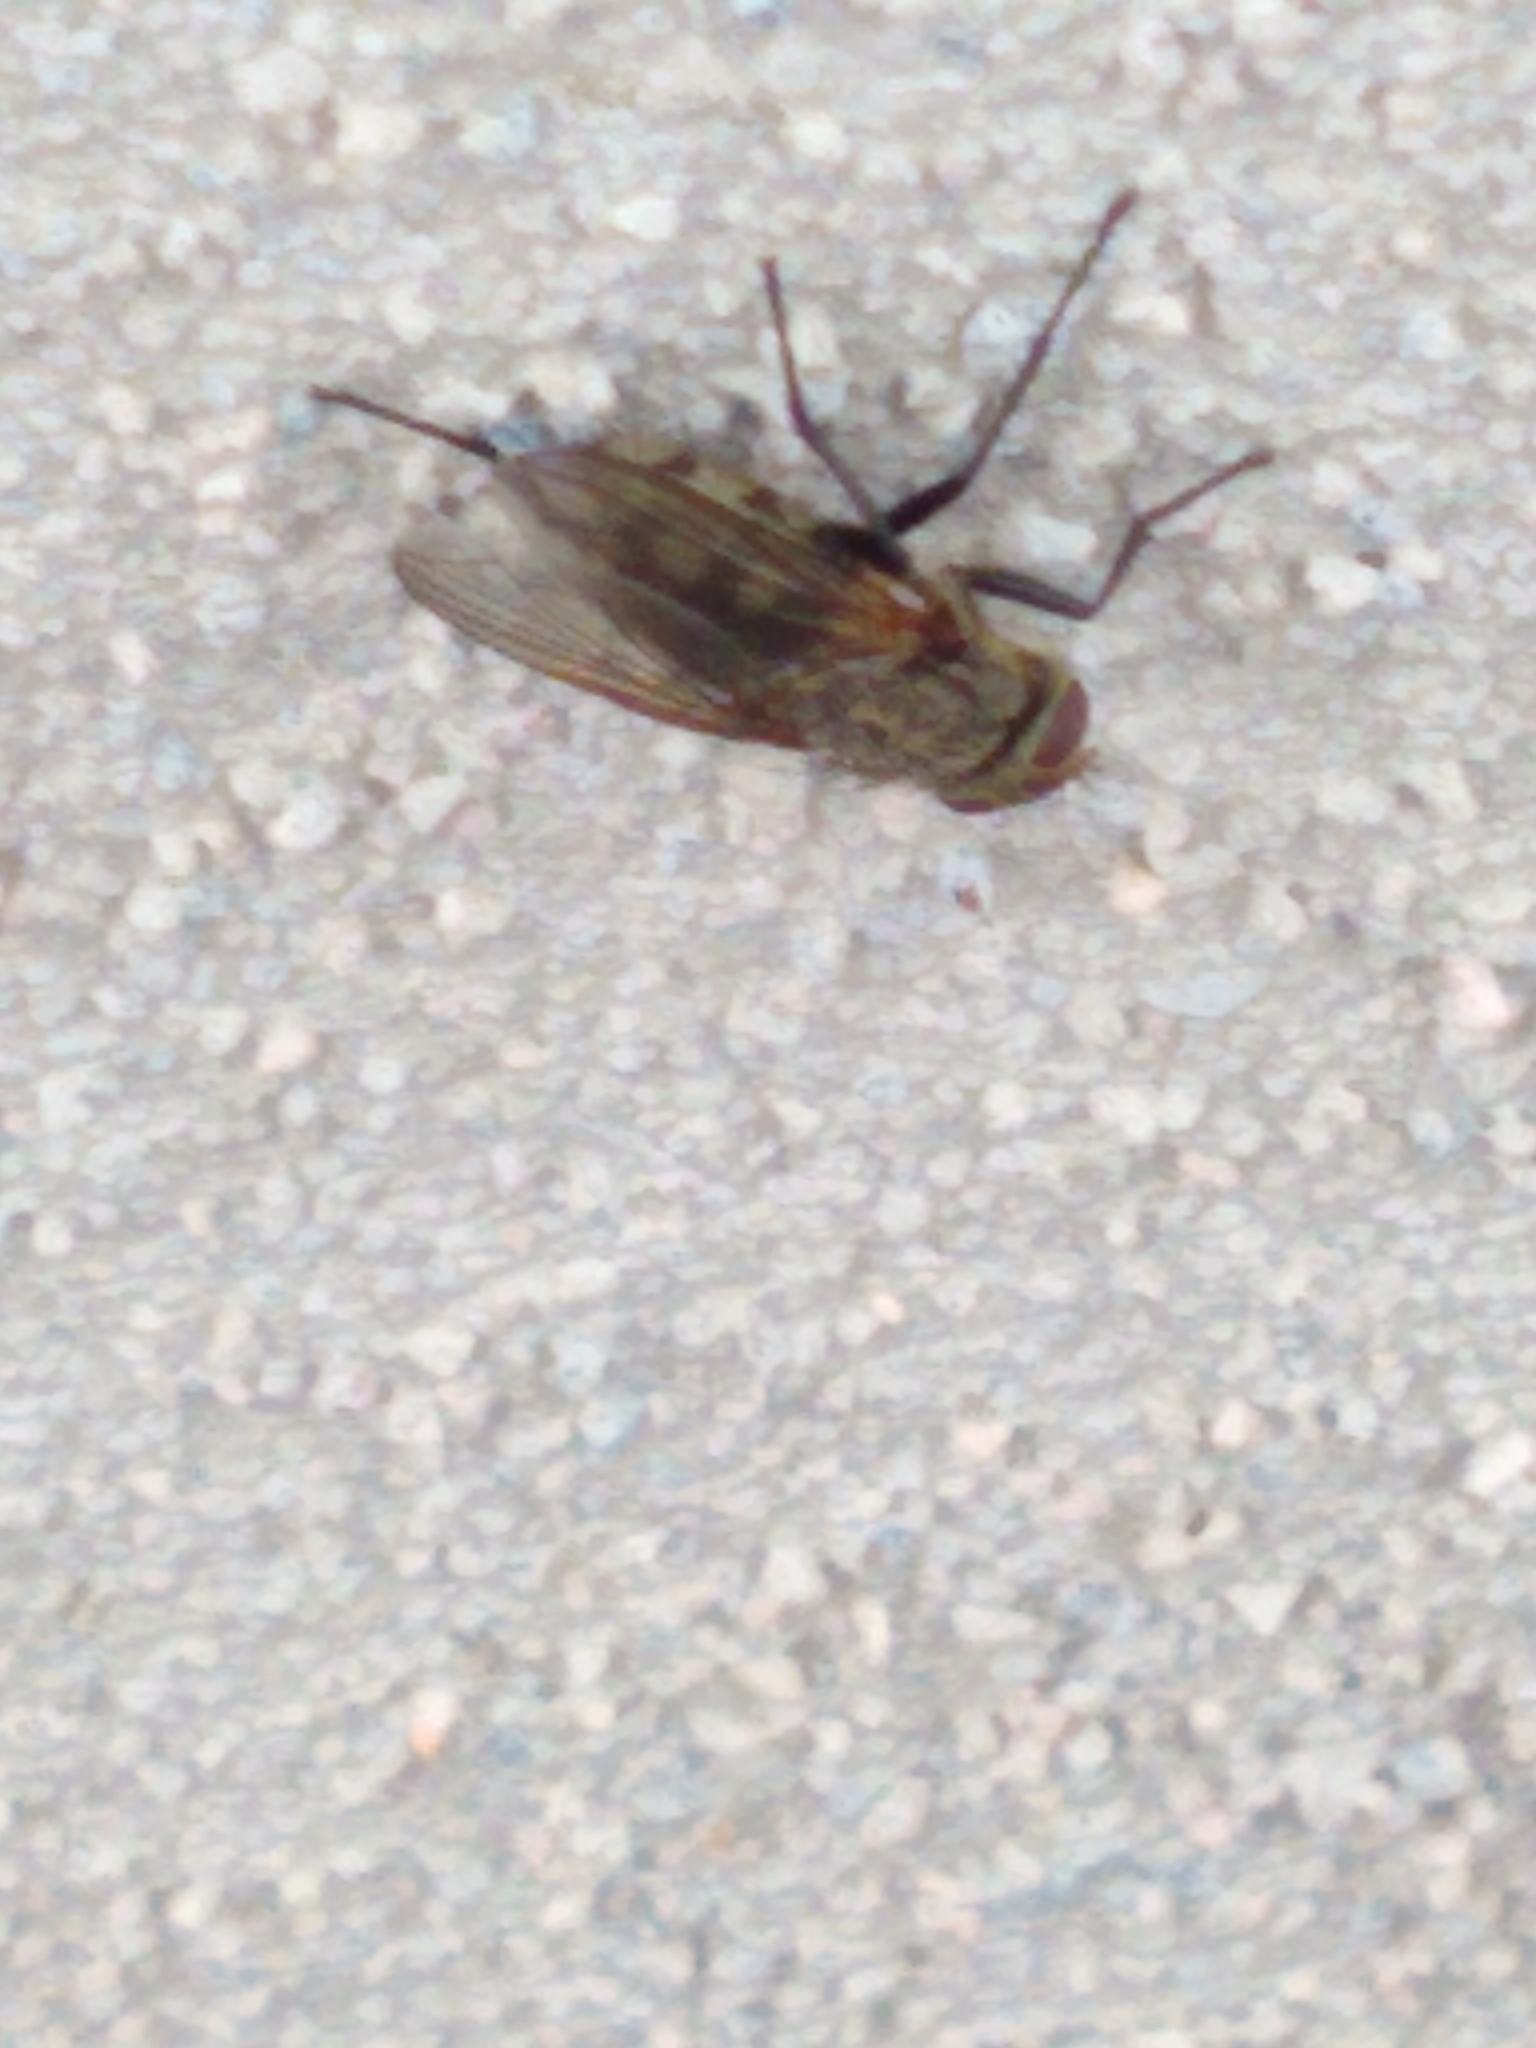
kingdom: Animalia
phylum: Arthropoda
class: Insecta
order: Diptera
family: Polleniidae
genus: Pollenia
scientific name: Pollenia
